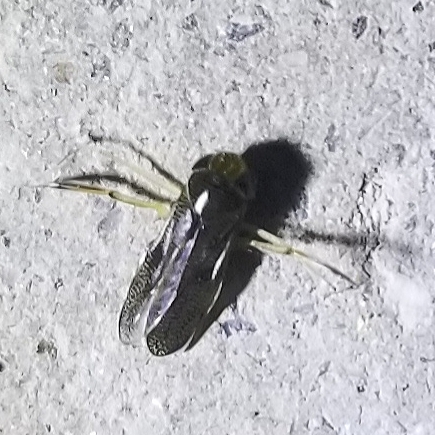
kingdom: Animalia
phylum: Arthropoda
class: Insecta
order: Hemiptera
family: Corixidae
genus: Trichocorixa
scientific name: Trichocorixa reticulata
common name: Water boatman
